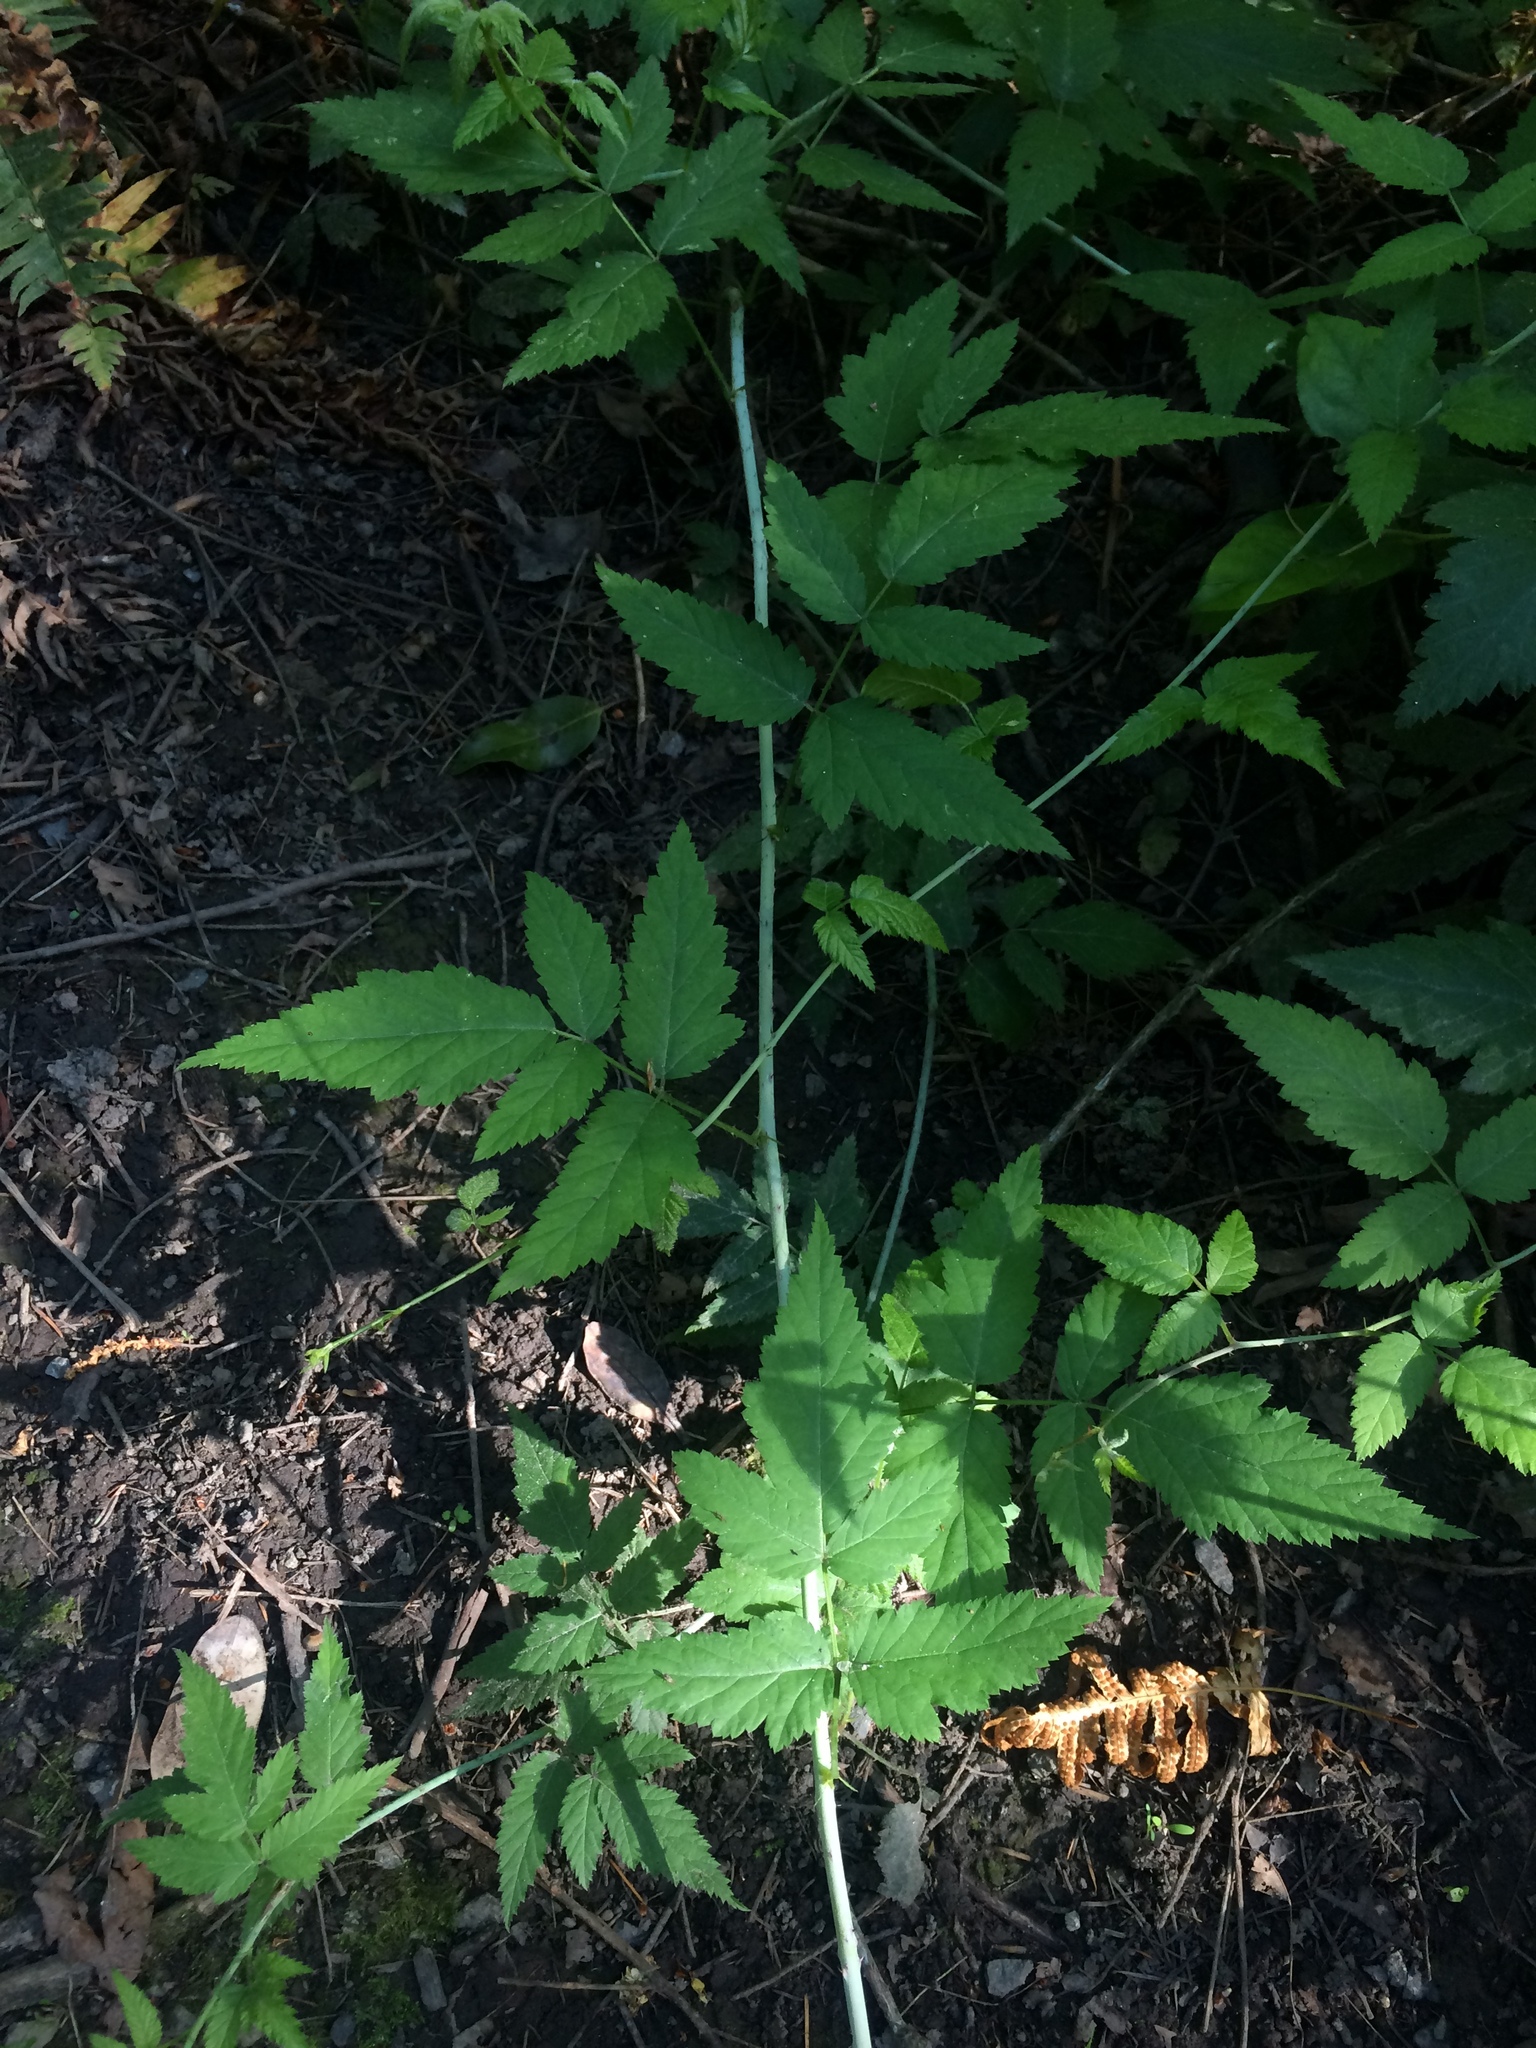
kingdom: Plantae
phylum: Tracheophyta
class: Magnoliopsida
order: Rosales
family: Rosaceae
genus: Rubus
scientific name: Rubus ursinus
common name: Pacific blackberry
